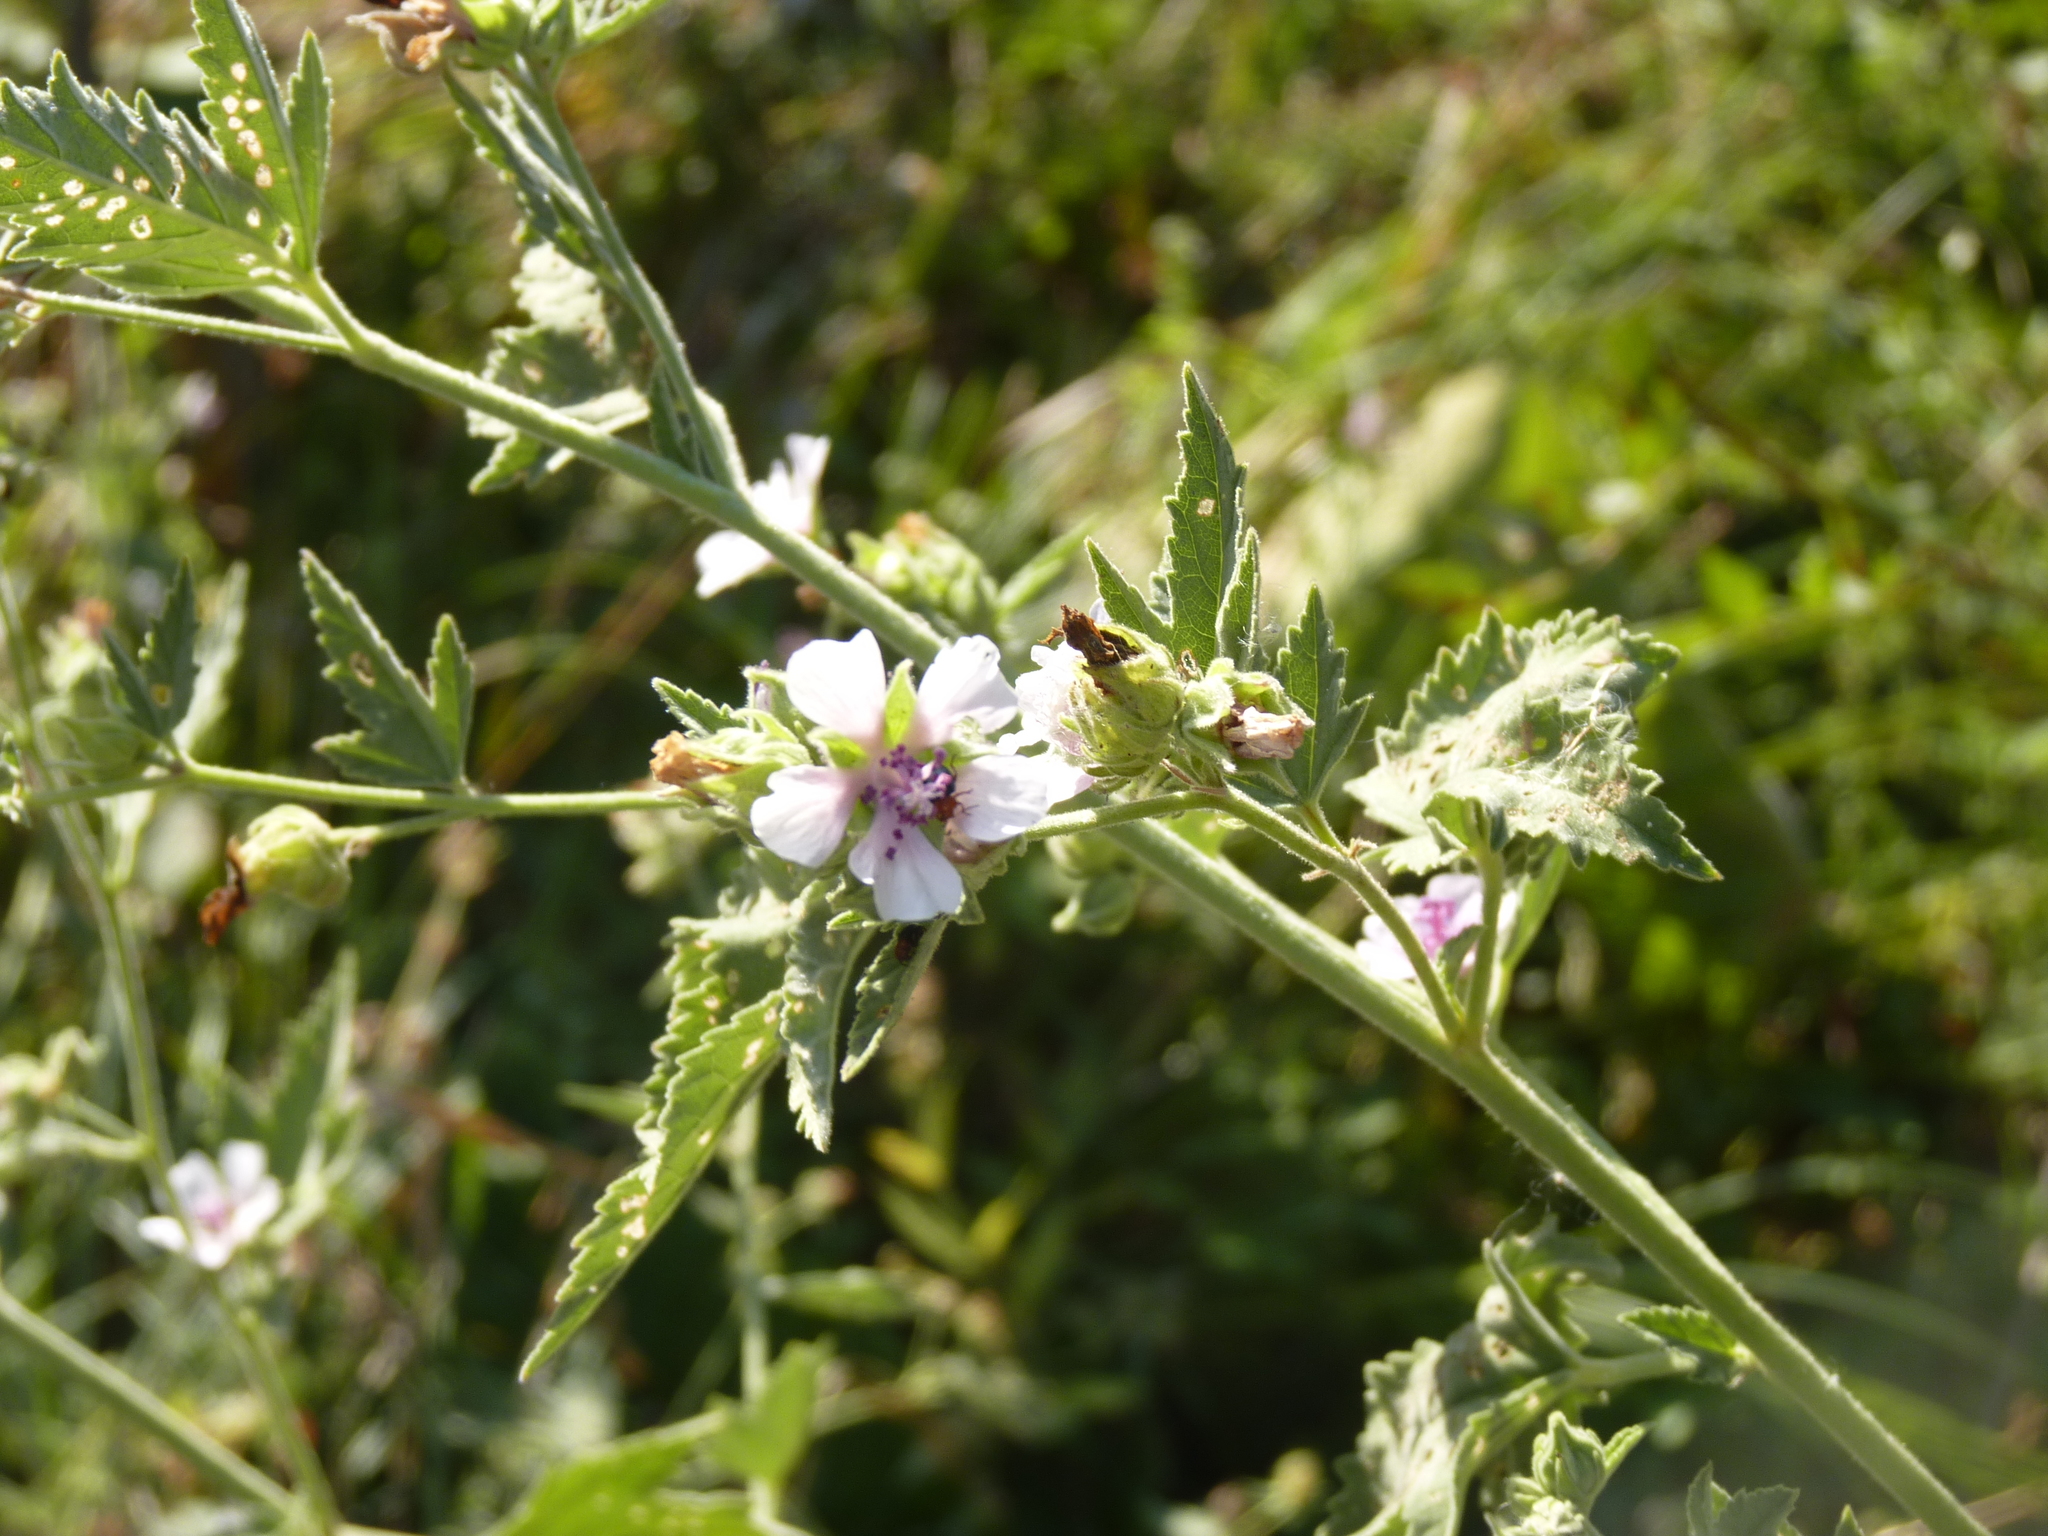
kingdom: Plantae
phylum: Tracheophyta
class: Magnoliopsida
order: Malvales
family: Malvaceae
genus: Althaea
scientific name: Althaea officinalis
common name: Marsh-mallow
